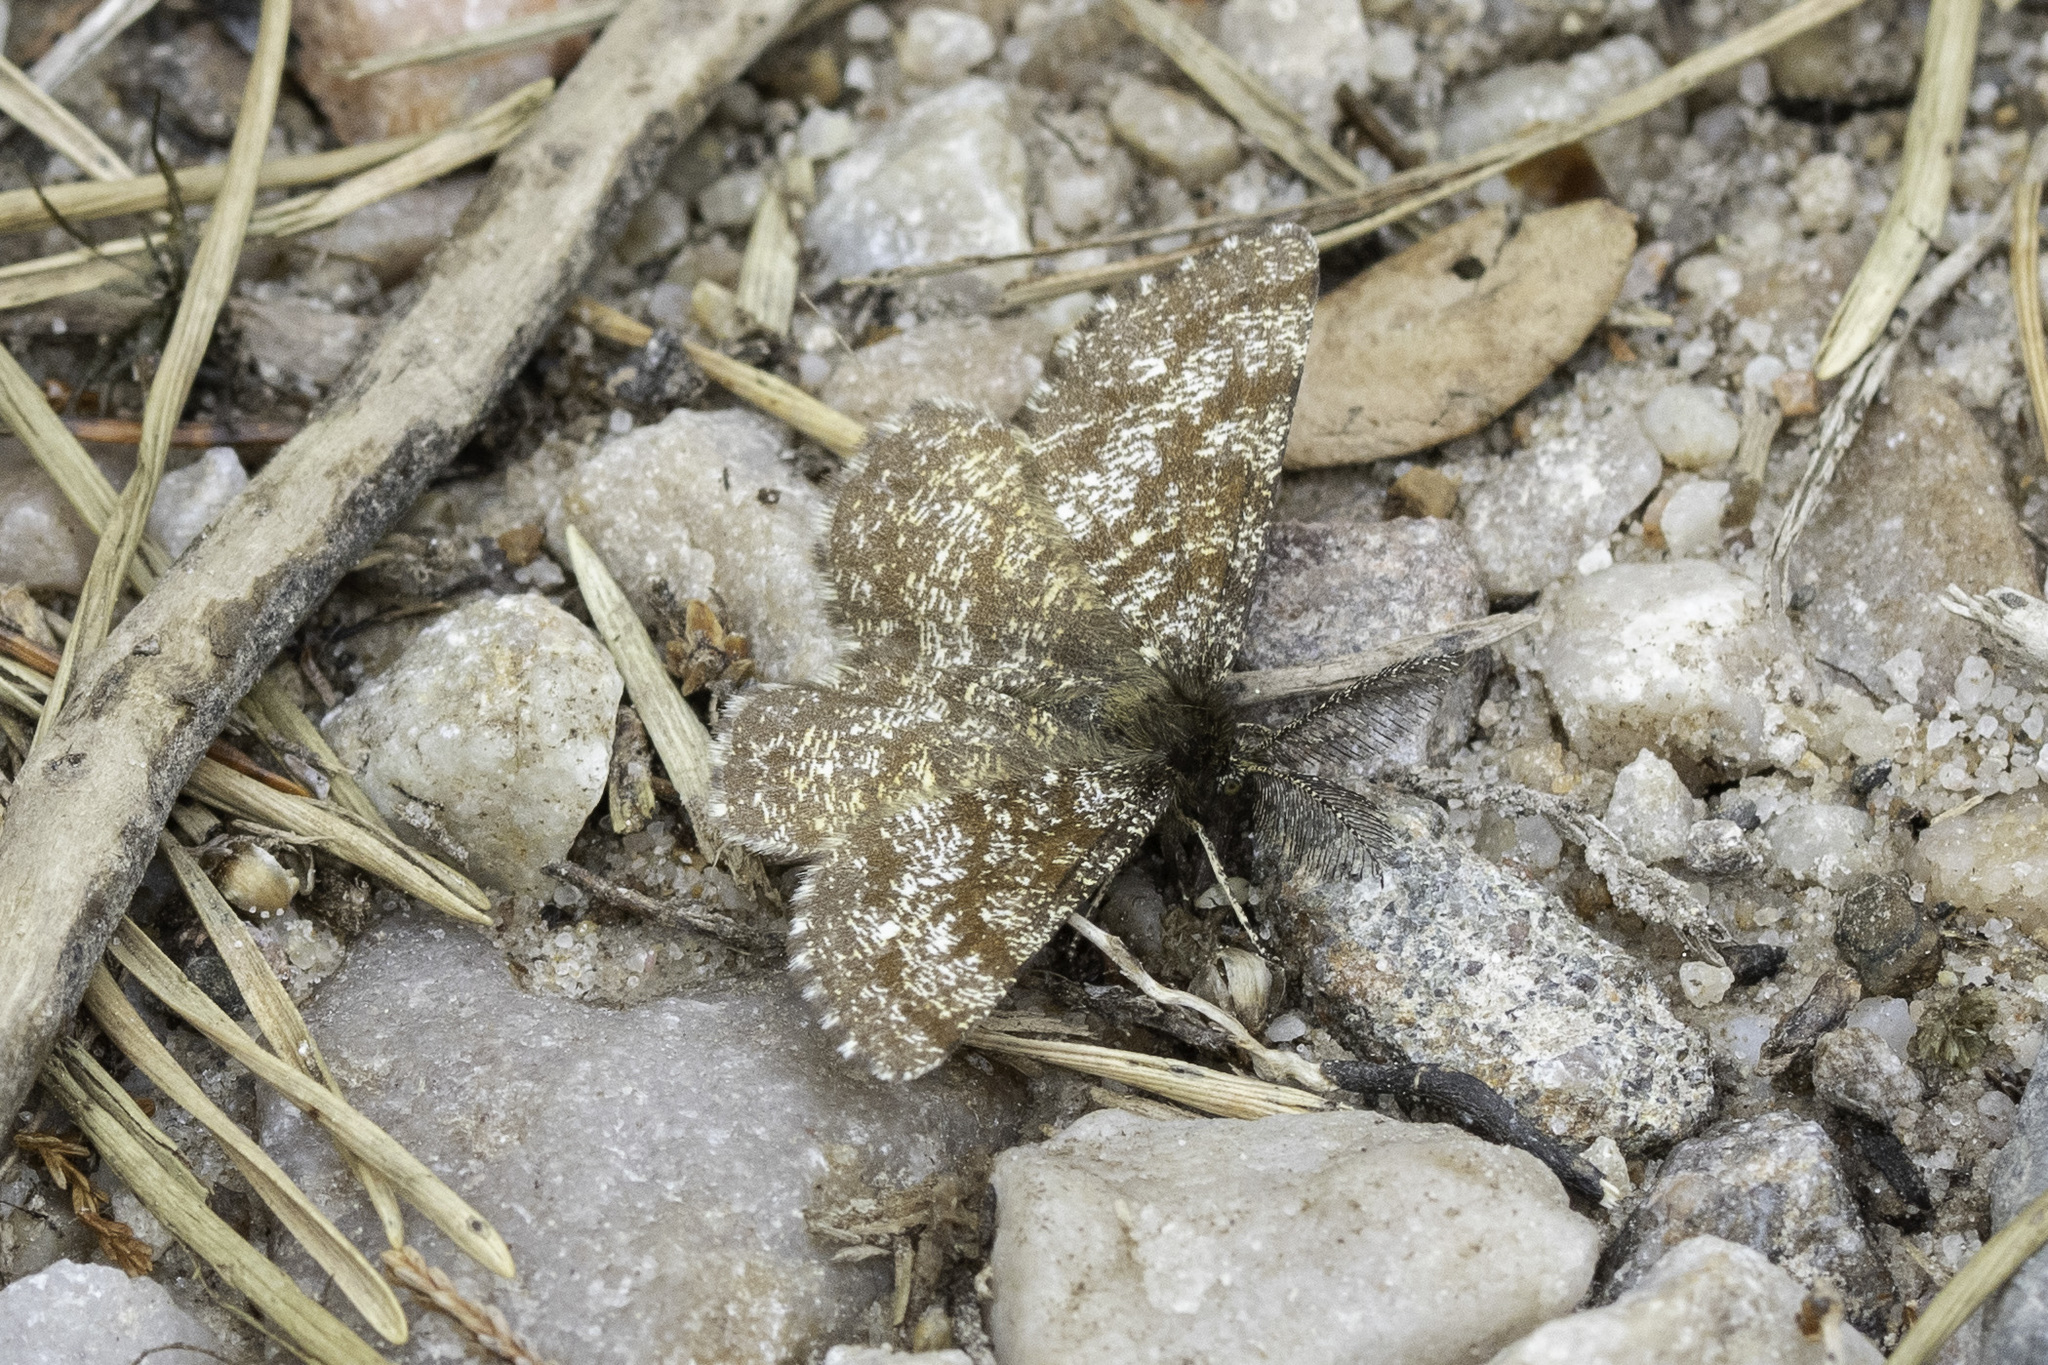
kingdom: Animalia
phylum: Arthropoda
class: Insecta
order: Lepidoptera
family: Geometridae
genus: Ematurga
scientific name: Ematurga atomaria
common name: Common heath
